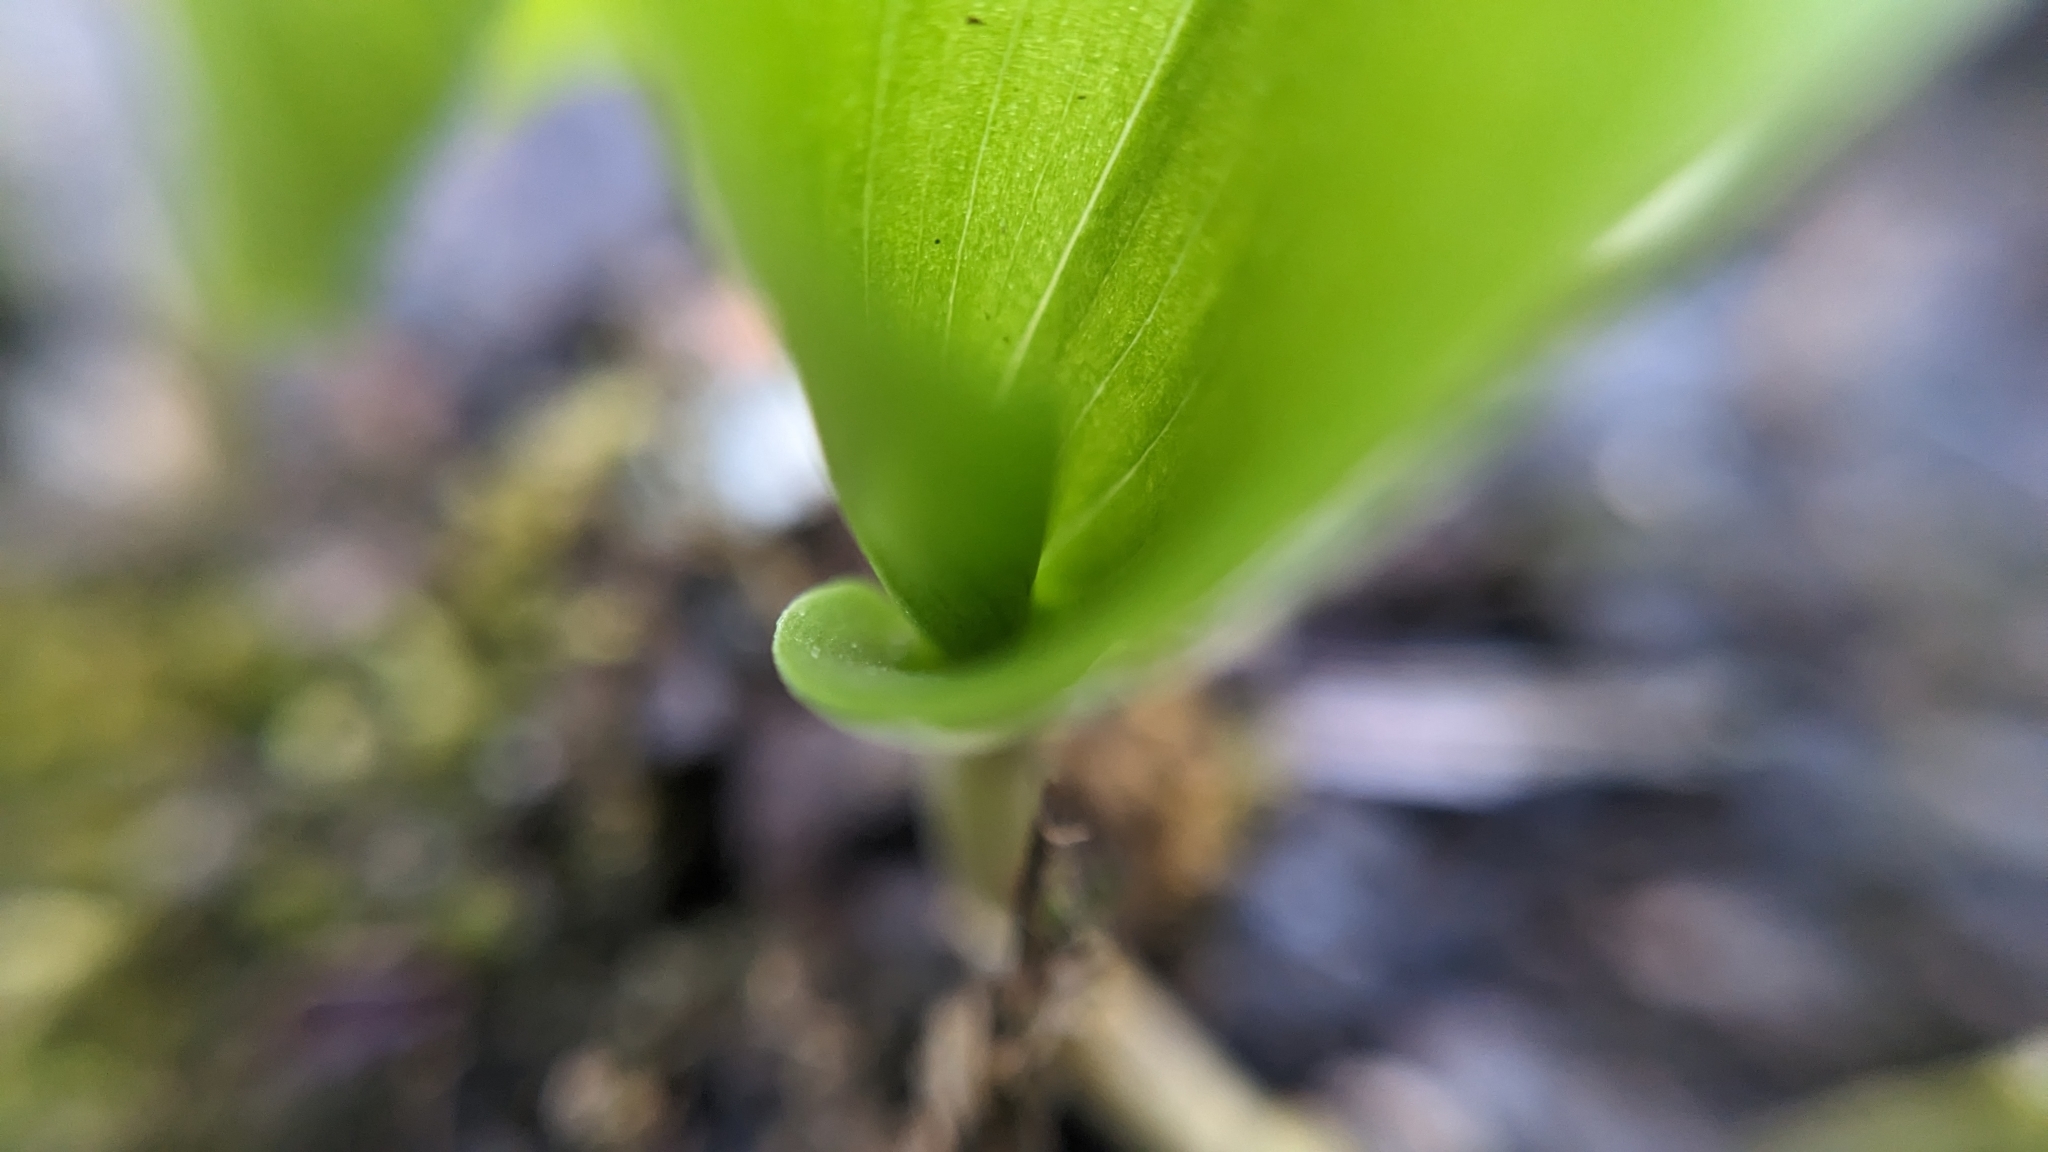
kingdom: Plantae
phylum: Tracheophyta
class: Liliopsida
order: Asparagales
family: Asparagaceae
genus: Maianthemum
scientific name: Maianthemum canadense
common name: False lily-of-the-valley
